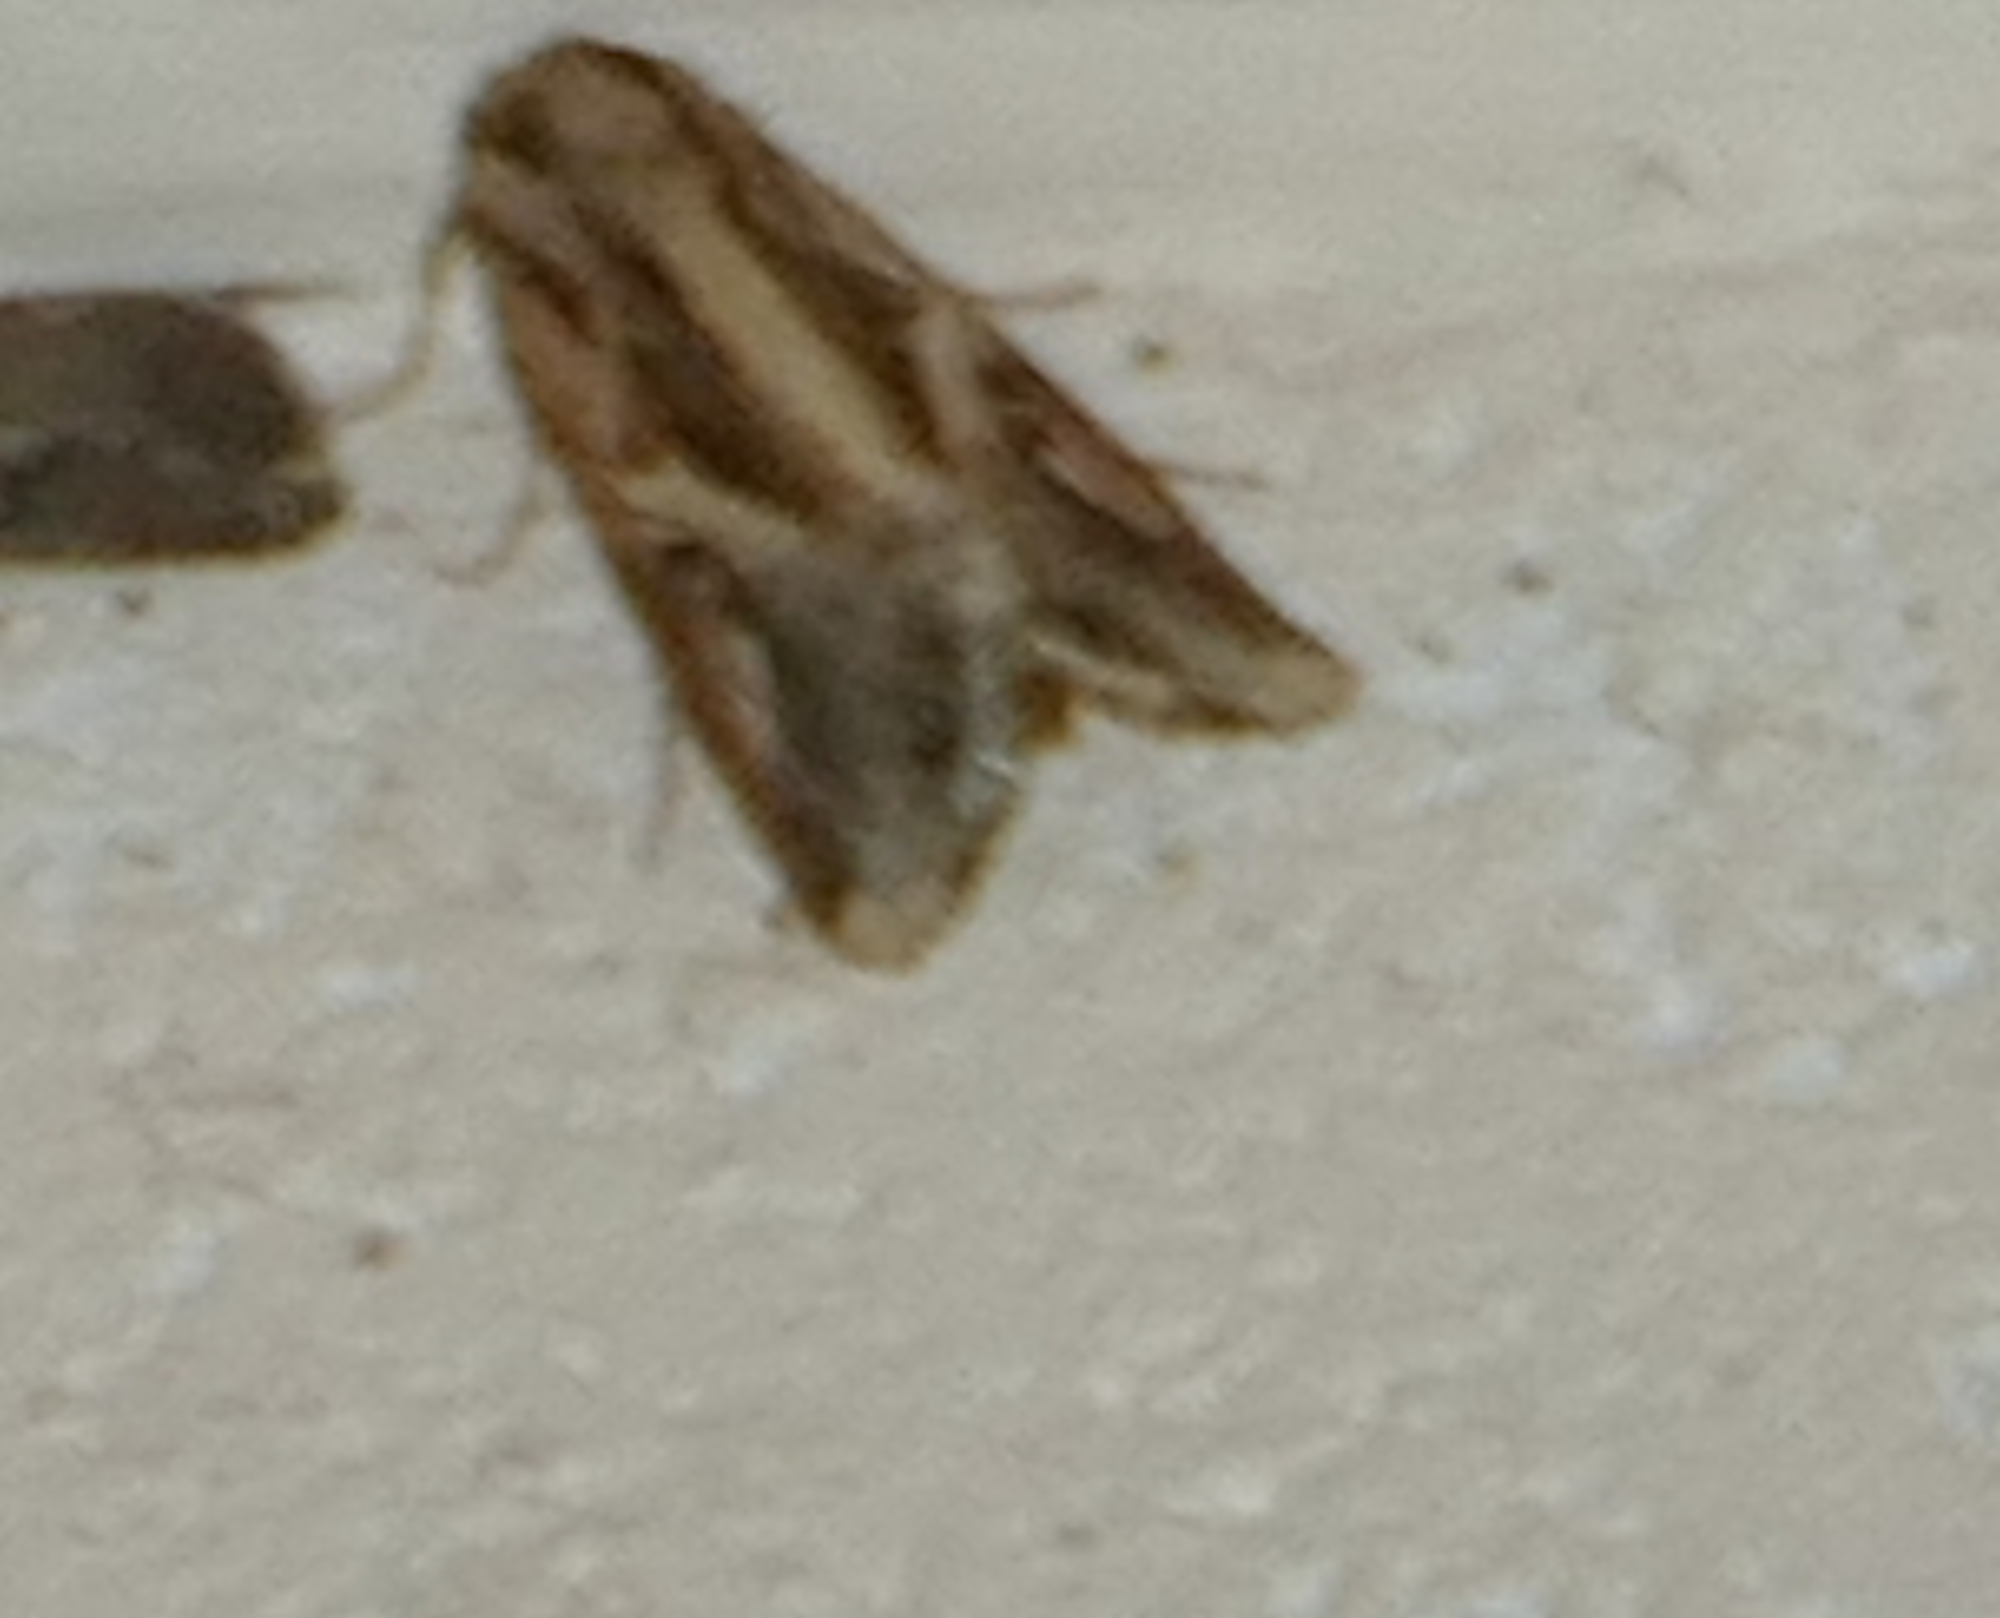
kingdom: Animalia
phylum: Arthropoda
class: Insecta
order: Lepidoptera
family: Noctuidae
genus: Spodoptera
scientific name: Spodoptera dolichos
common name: Sweetpotato armyworm
